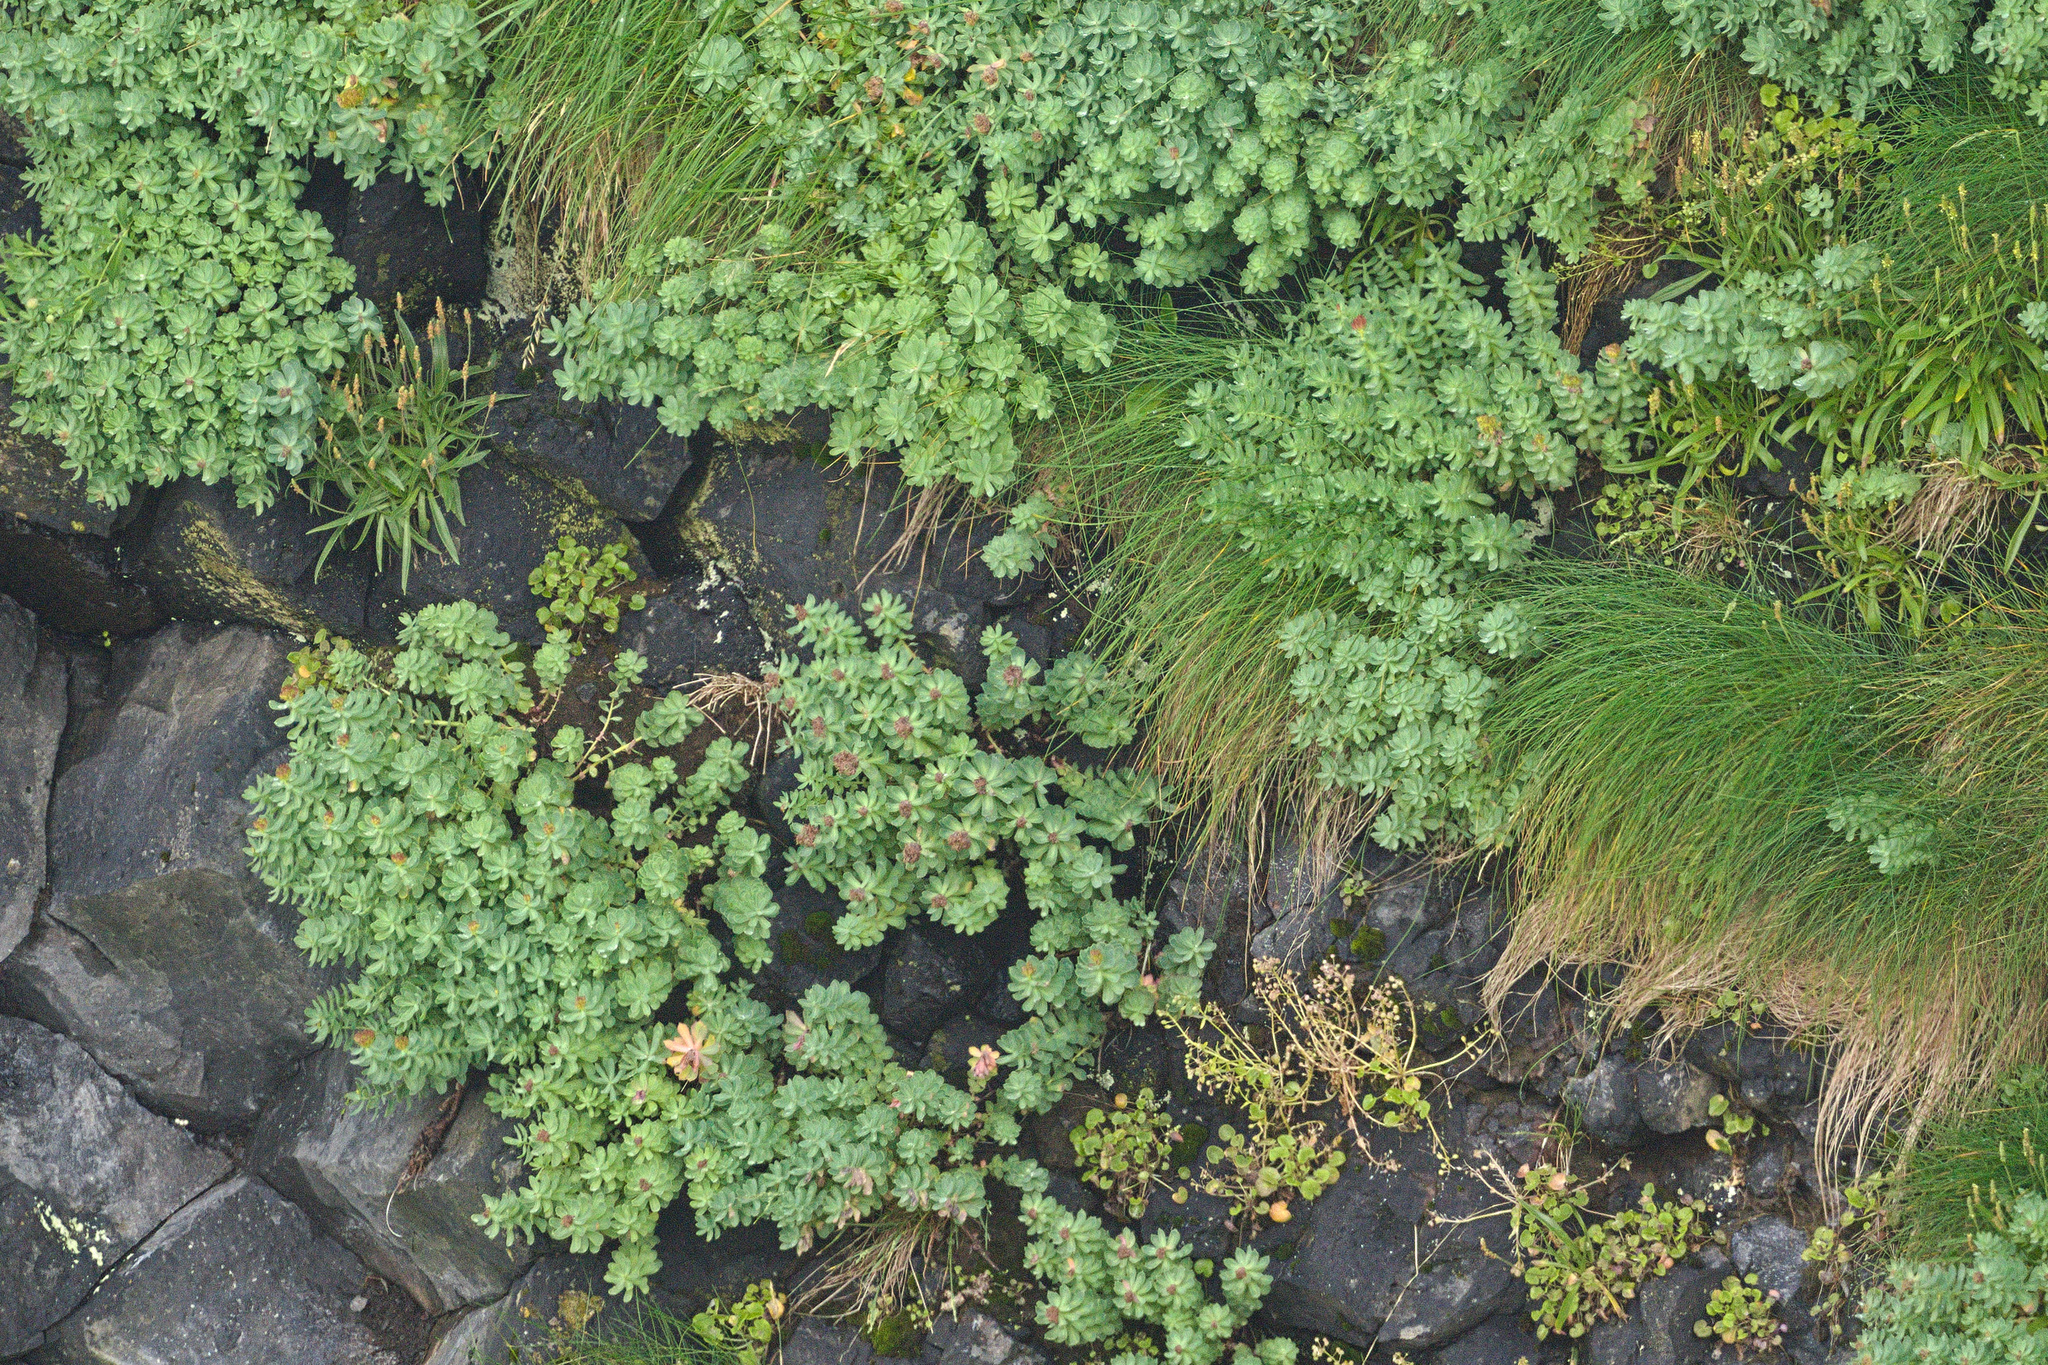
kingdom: Plantae
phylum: Tracheophyta
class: Magnoliopsida
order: Saxifragales
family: Crassulaceae
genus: Rhodiola
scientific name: Rhodiola rosea
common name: Roseroot
